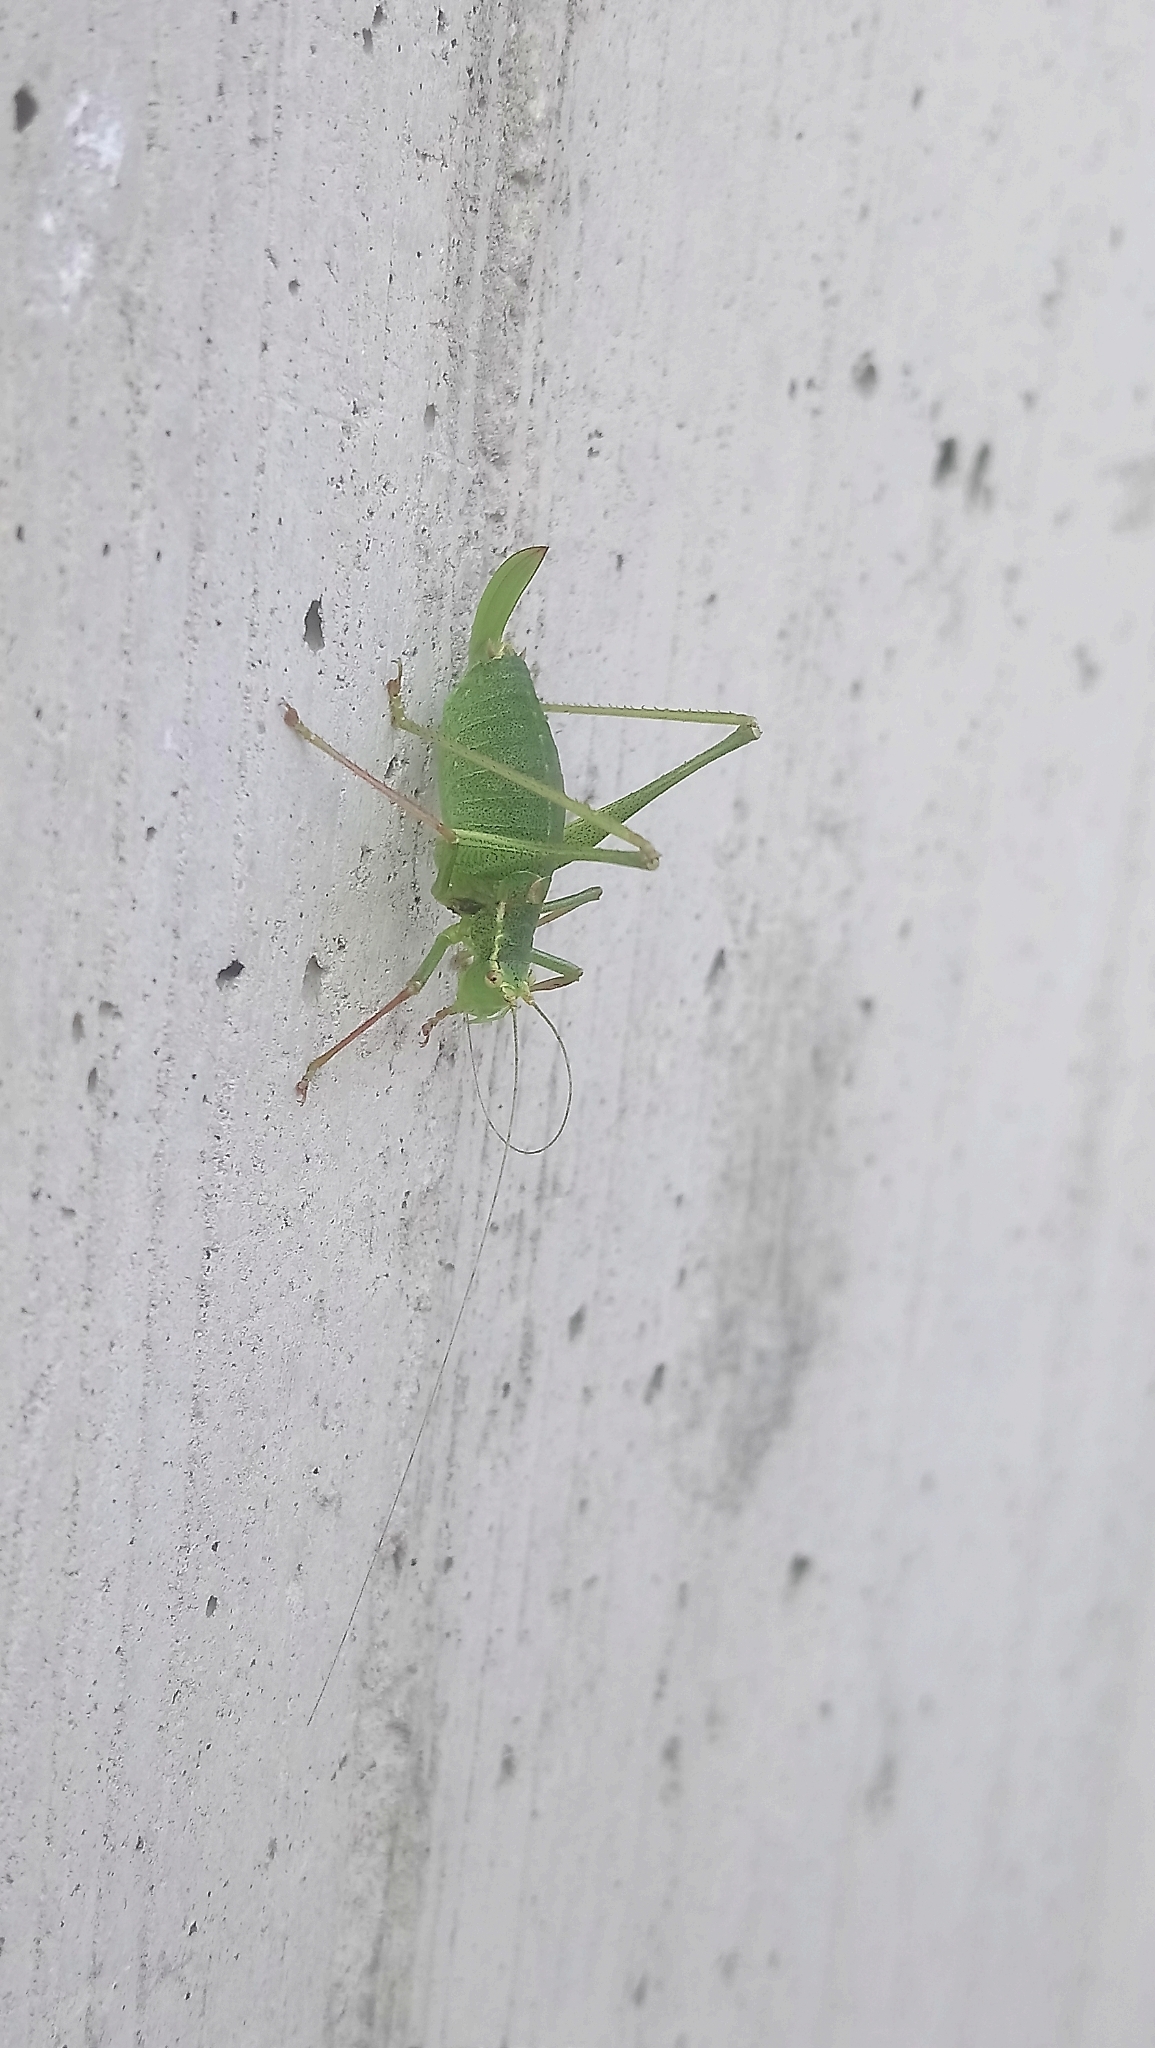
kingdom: Animalia
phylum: Arthropoda
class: Insecta
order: Orthoptera
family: Tettigoniidae
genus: Leptophyes
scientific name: Leptophyes punctatissima
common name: Speckled bush-cricket
